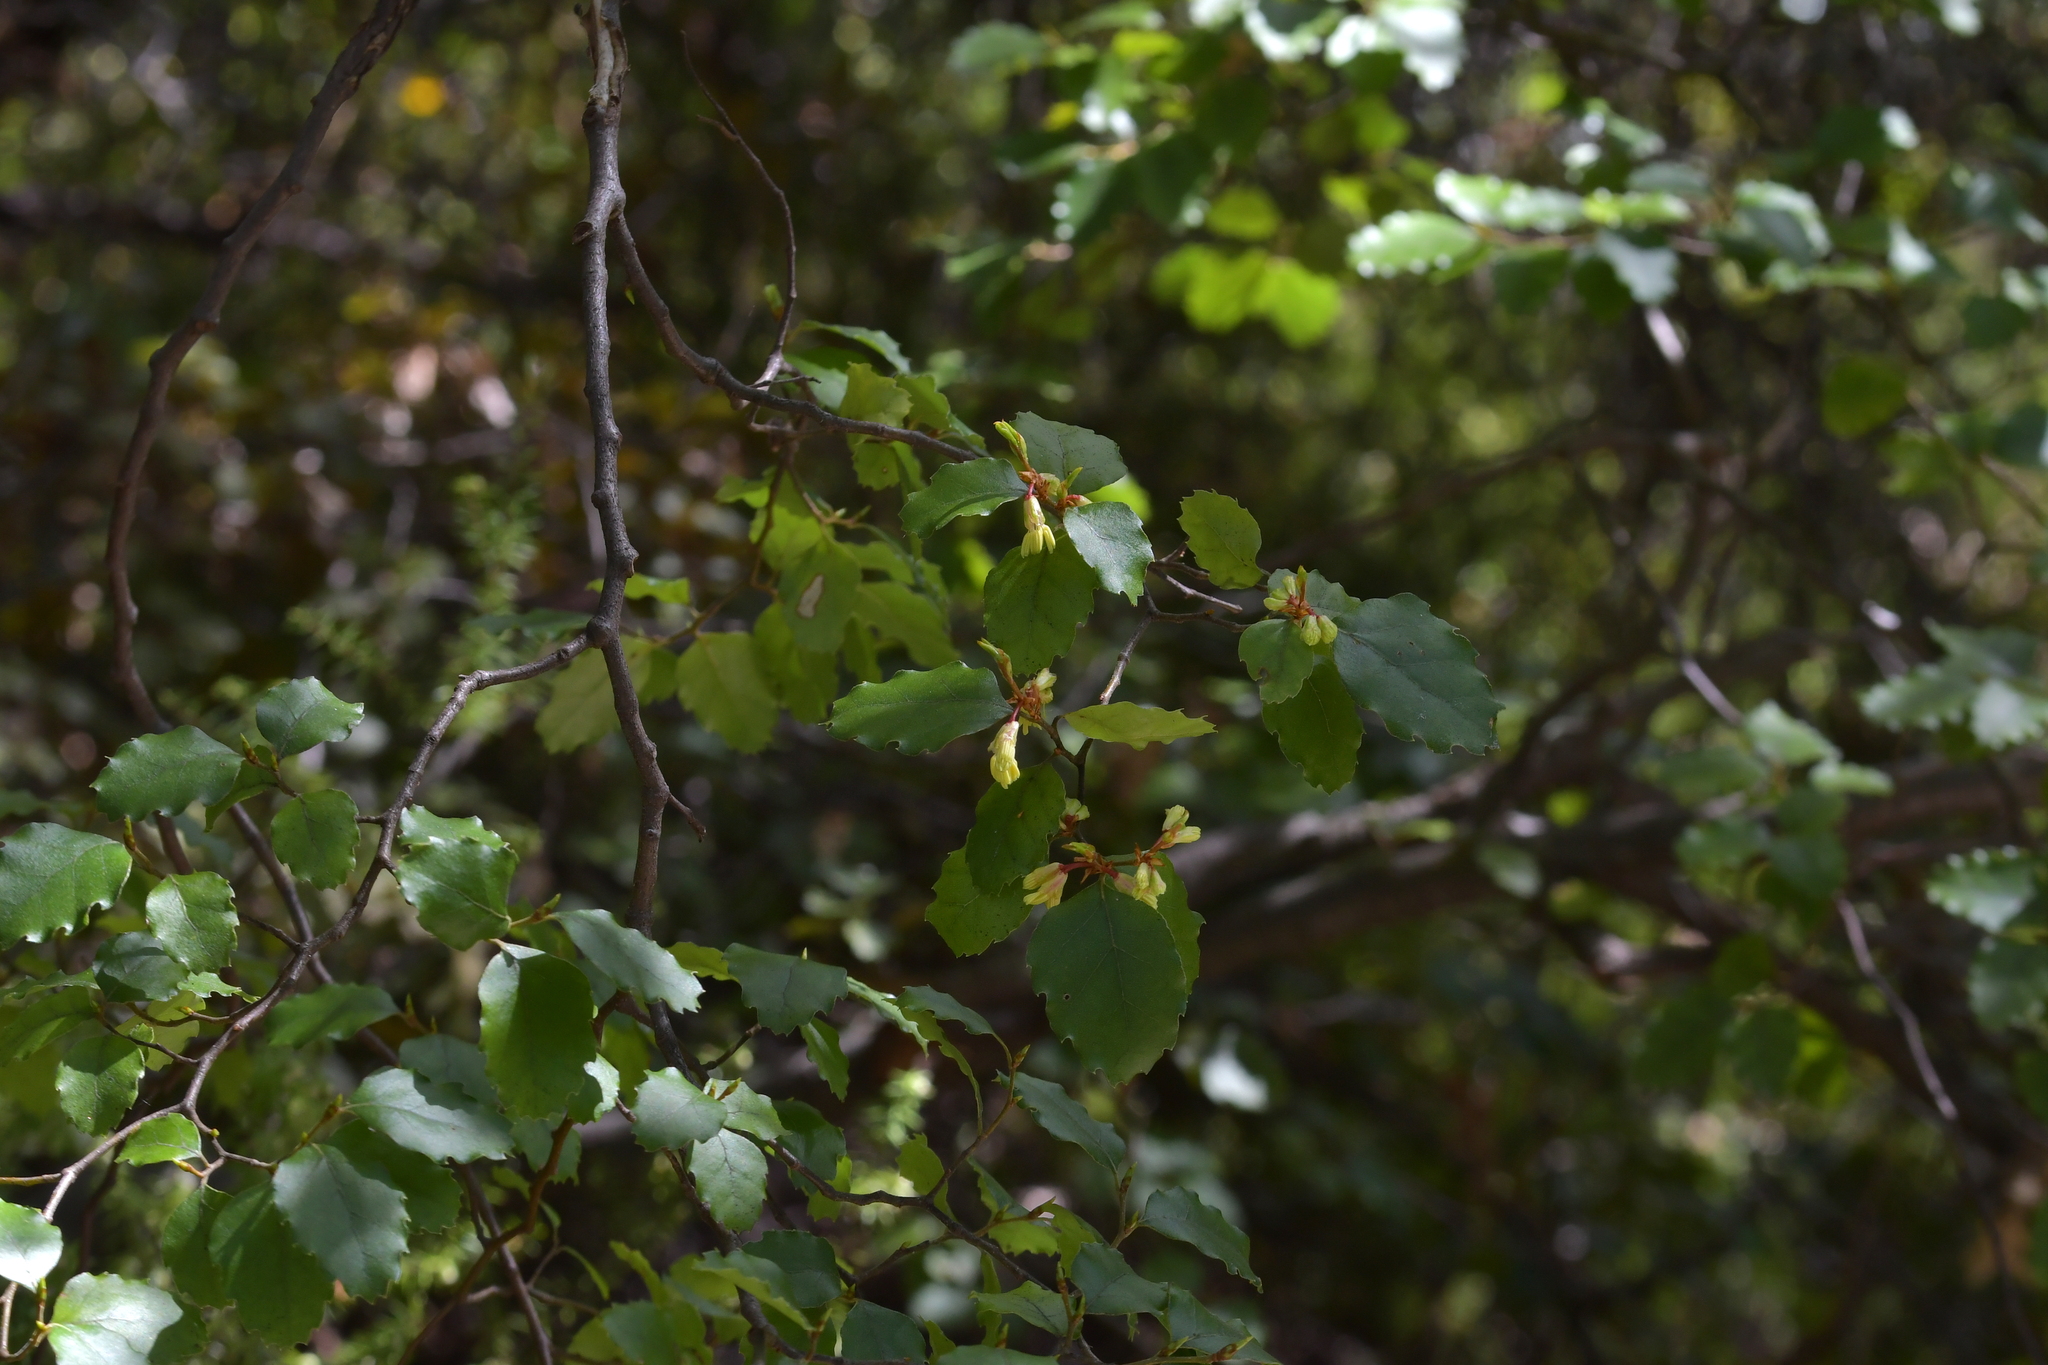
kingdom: Plantae
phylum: Tracheophyta
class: Magnoliopsida
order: Fagales
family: Nothofagaceae
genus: Nothofagus
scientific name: Nothofagus fusca
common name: Red beech
